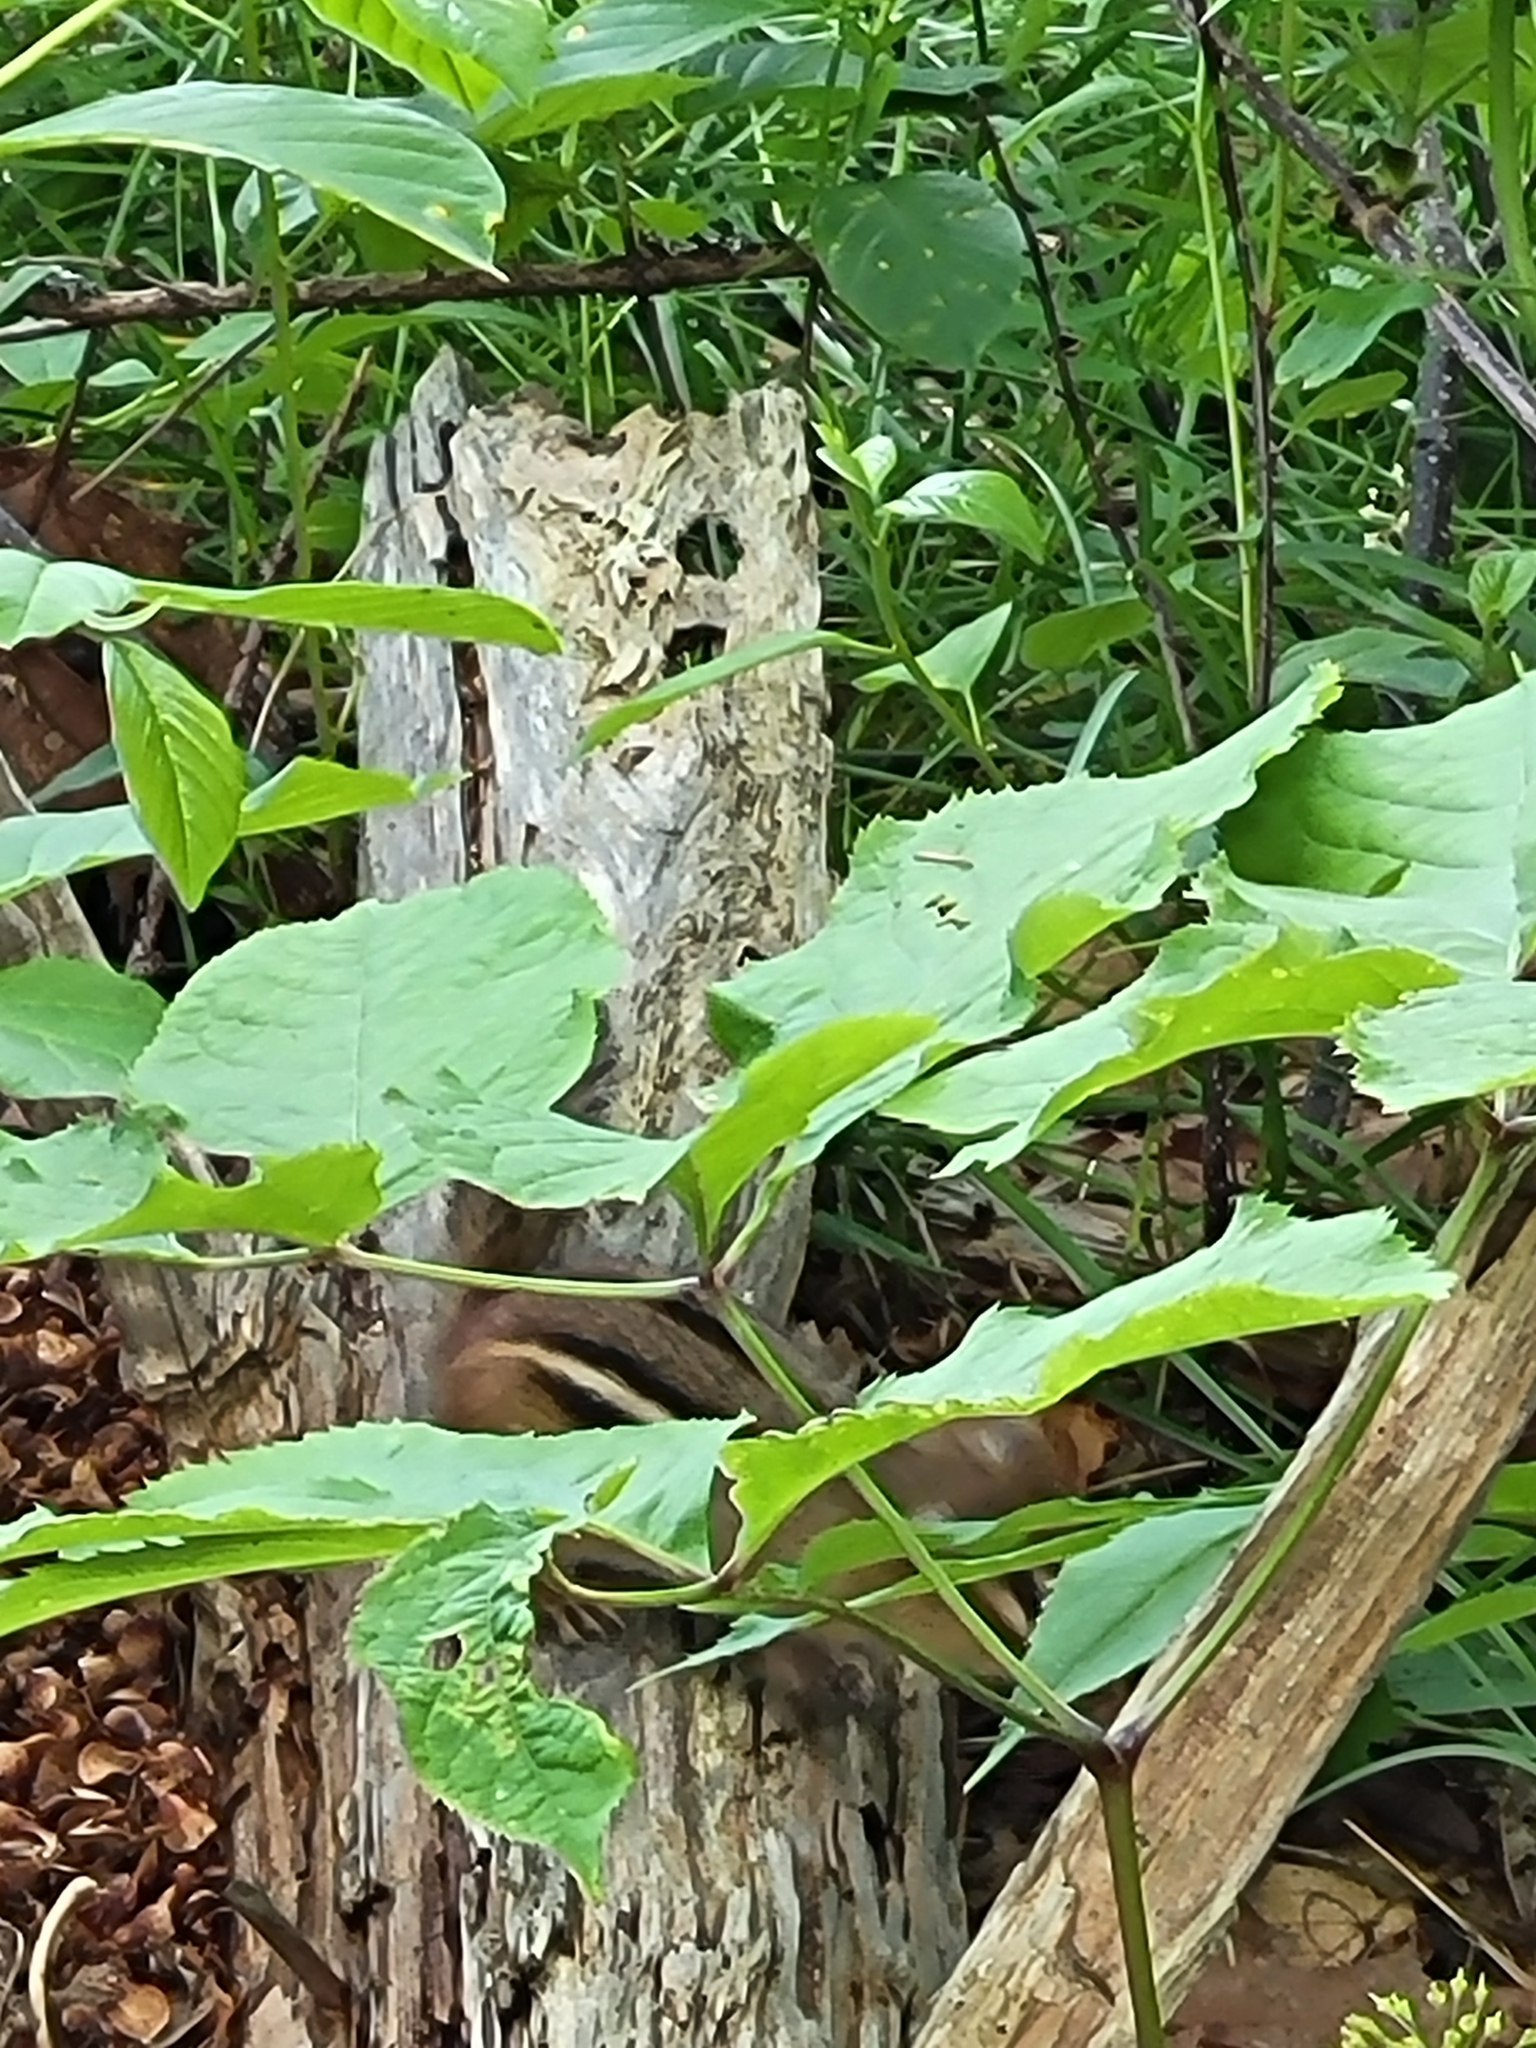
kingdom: Animalia
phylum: Chordata
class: Mammalia
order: Rodentia
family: Sciuridae
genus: Tamias
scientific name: Tamias striatus
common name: Eastern chipmunk
